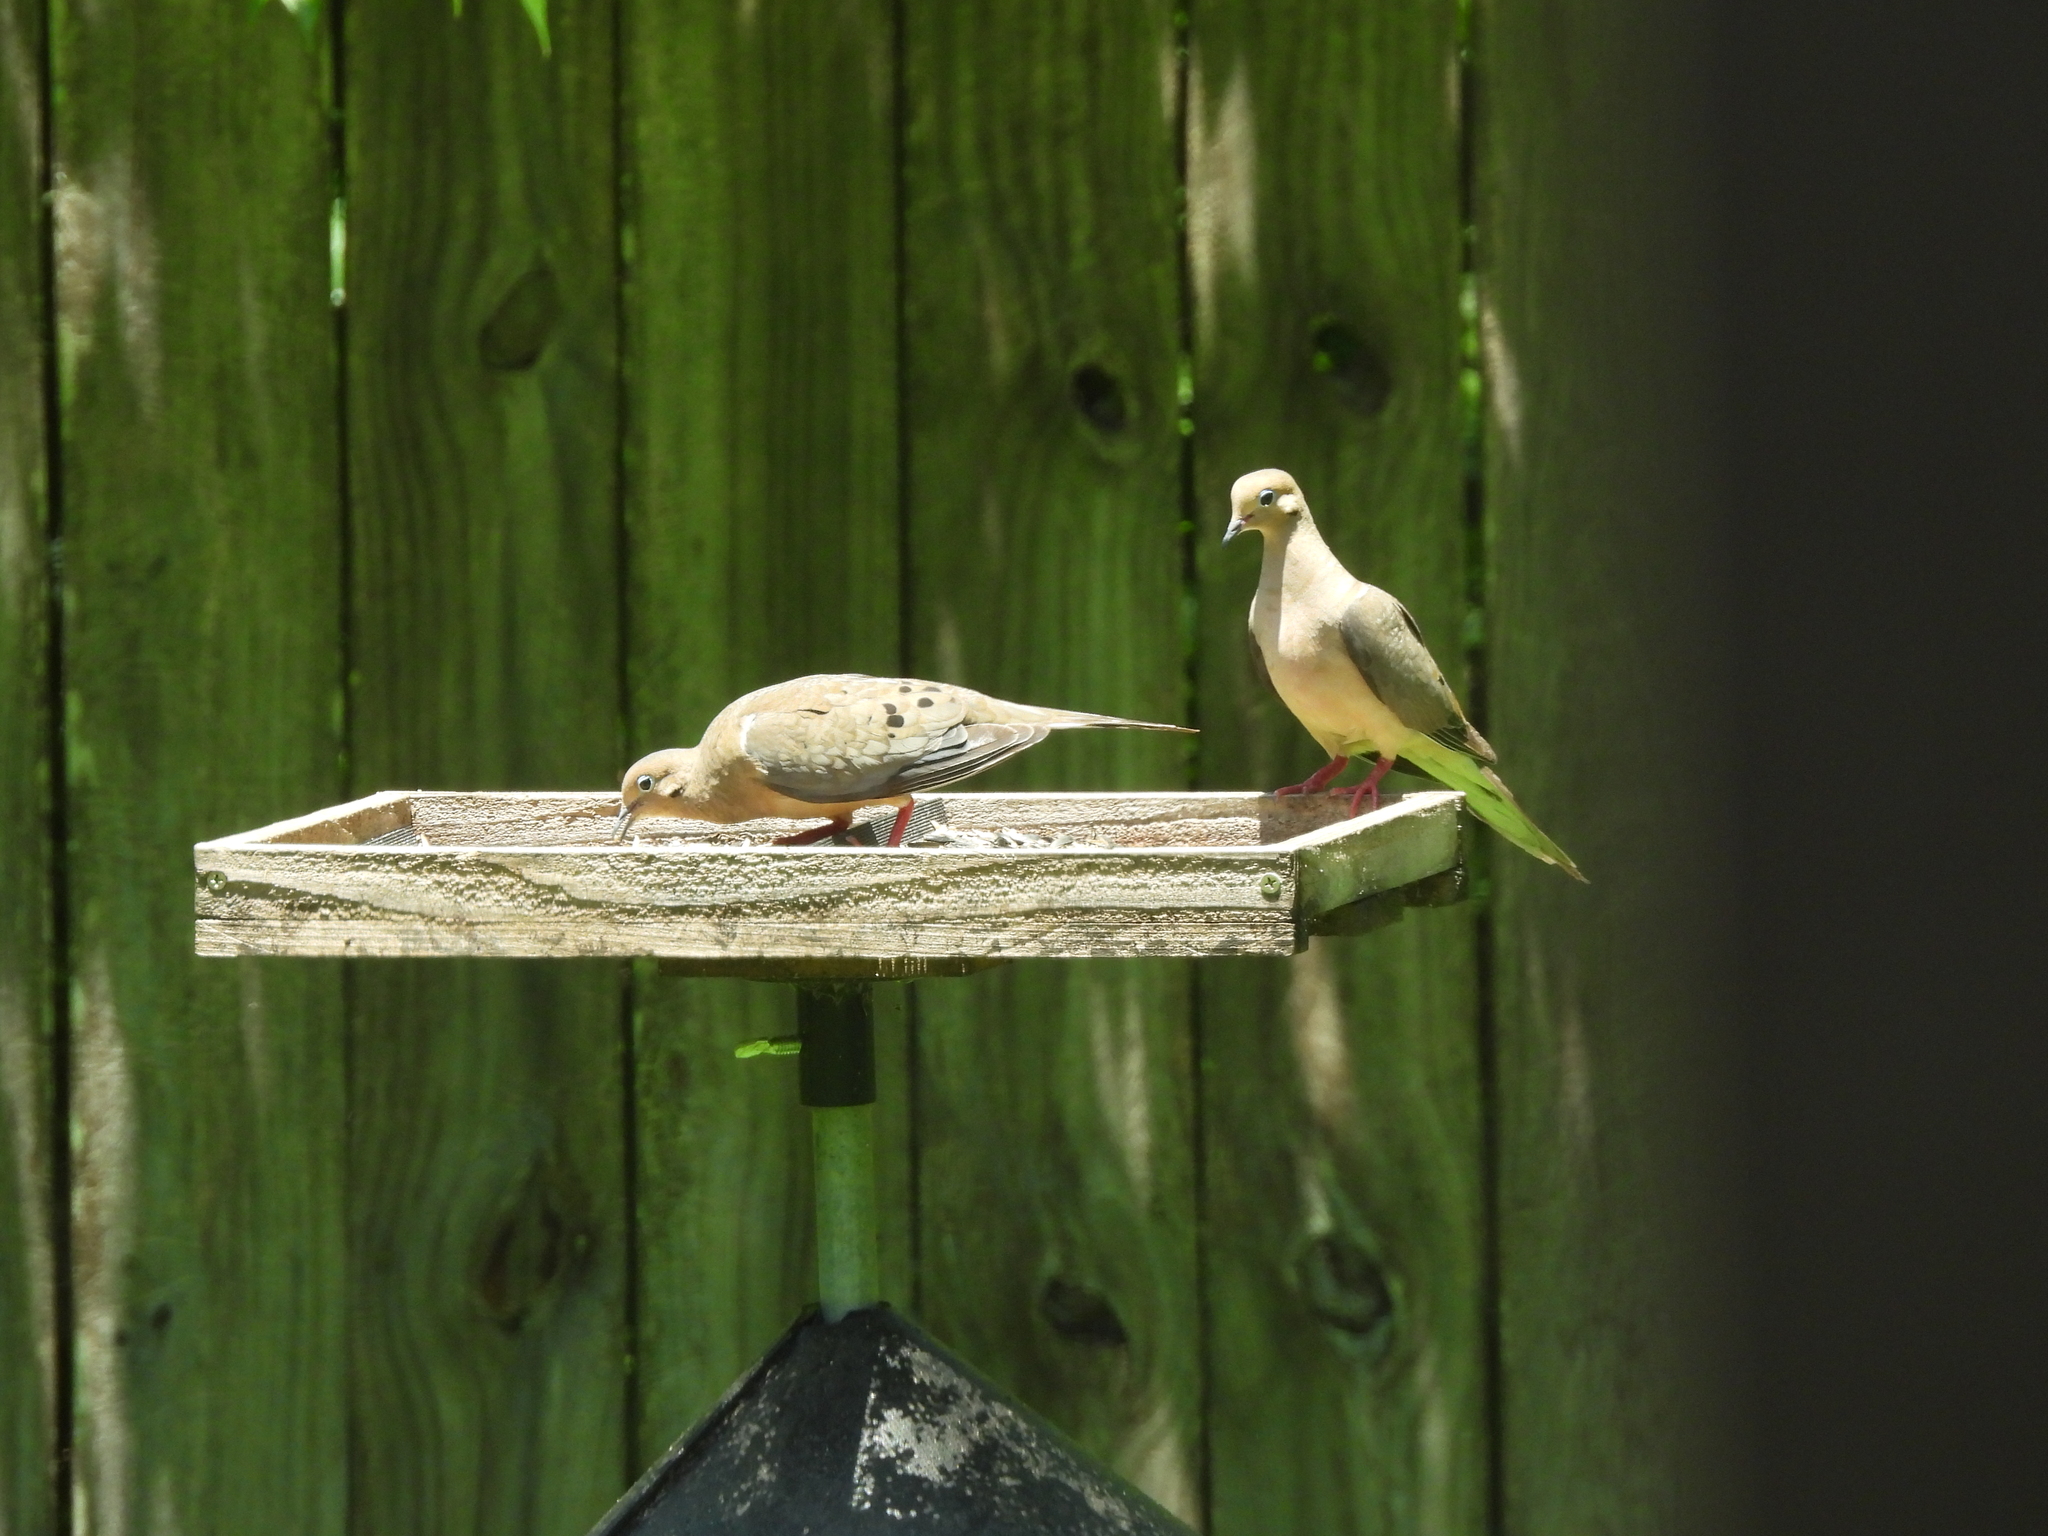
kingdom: Animalia
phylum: Chordata
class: Aves
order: Columbiformes
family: Columbidae
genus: Zenaida
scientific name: Zenaida macroura
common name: Mourning dove
